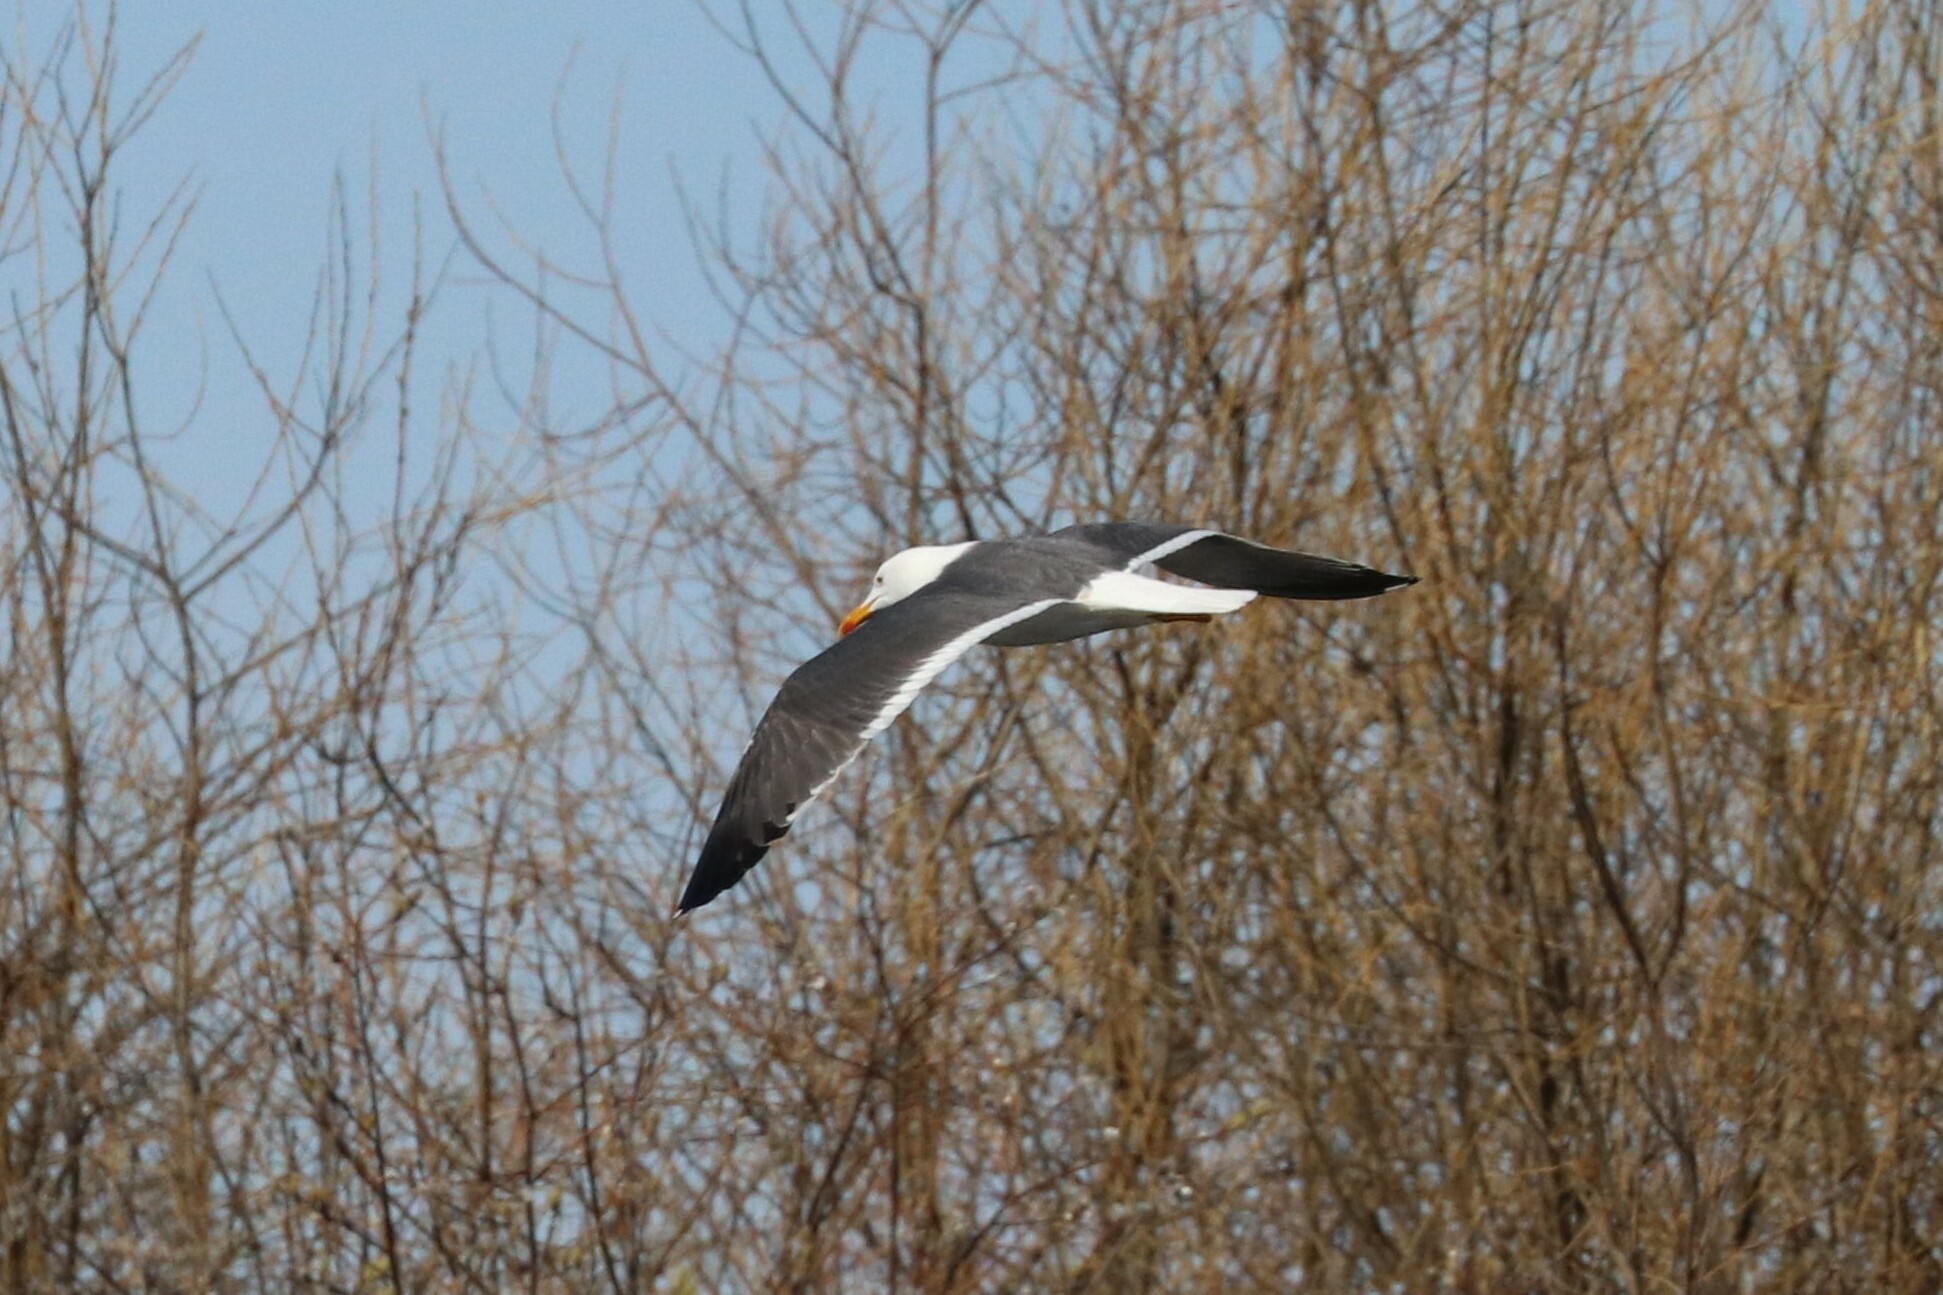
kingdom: Animalia
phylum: Chordata
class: Aves
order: Charadriiformes
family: Laridae
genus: Larus
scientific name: Larus fuscus
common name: Lesser black-backed gull
